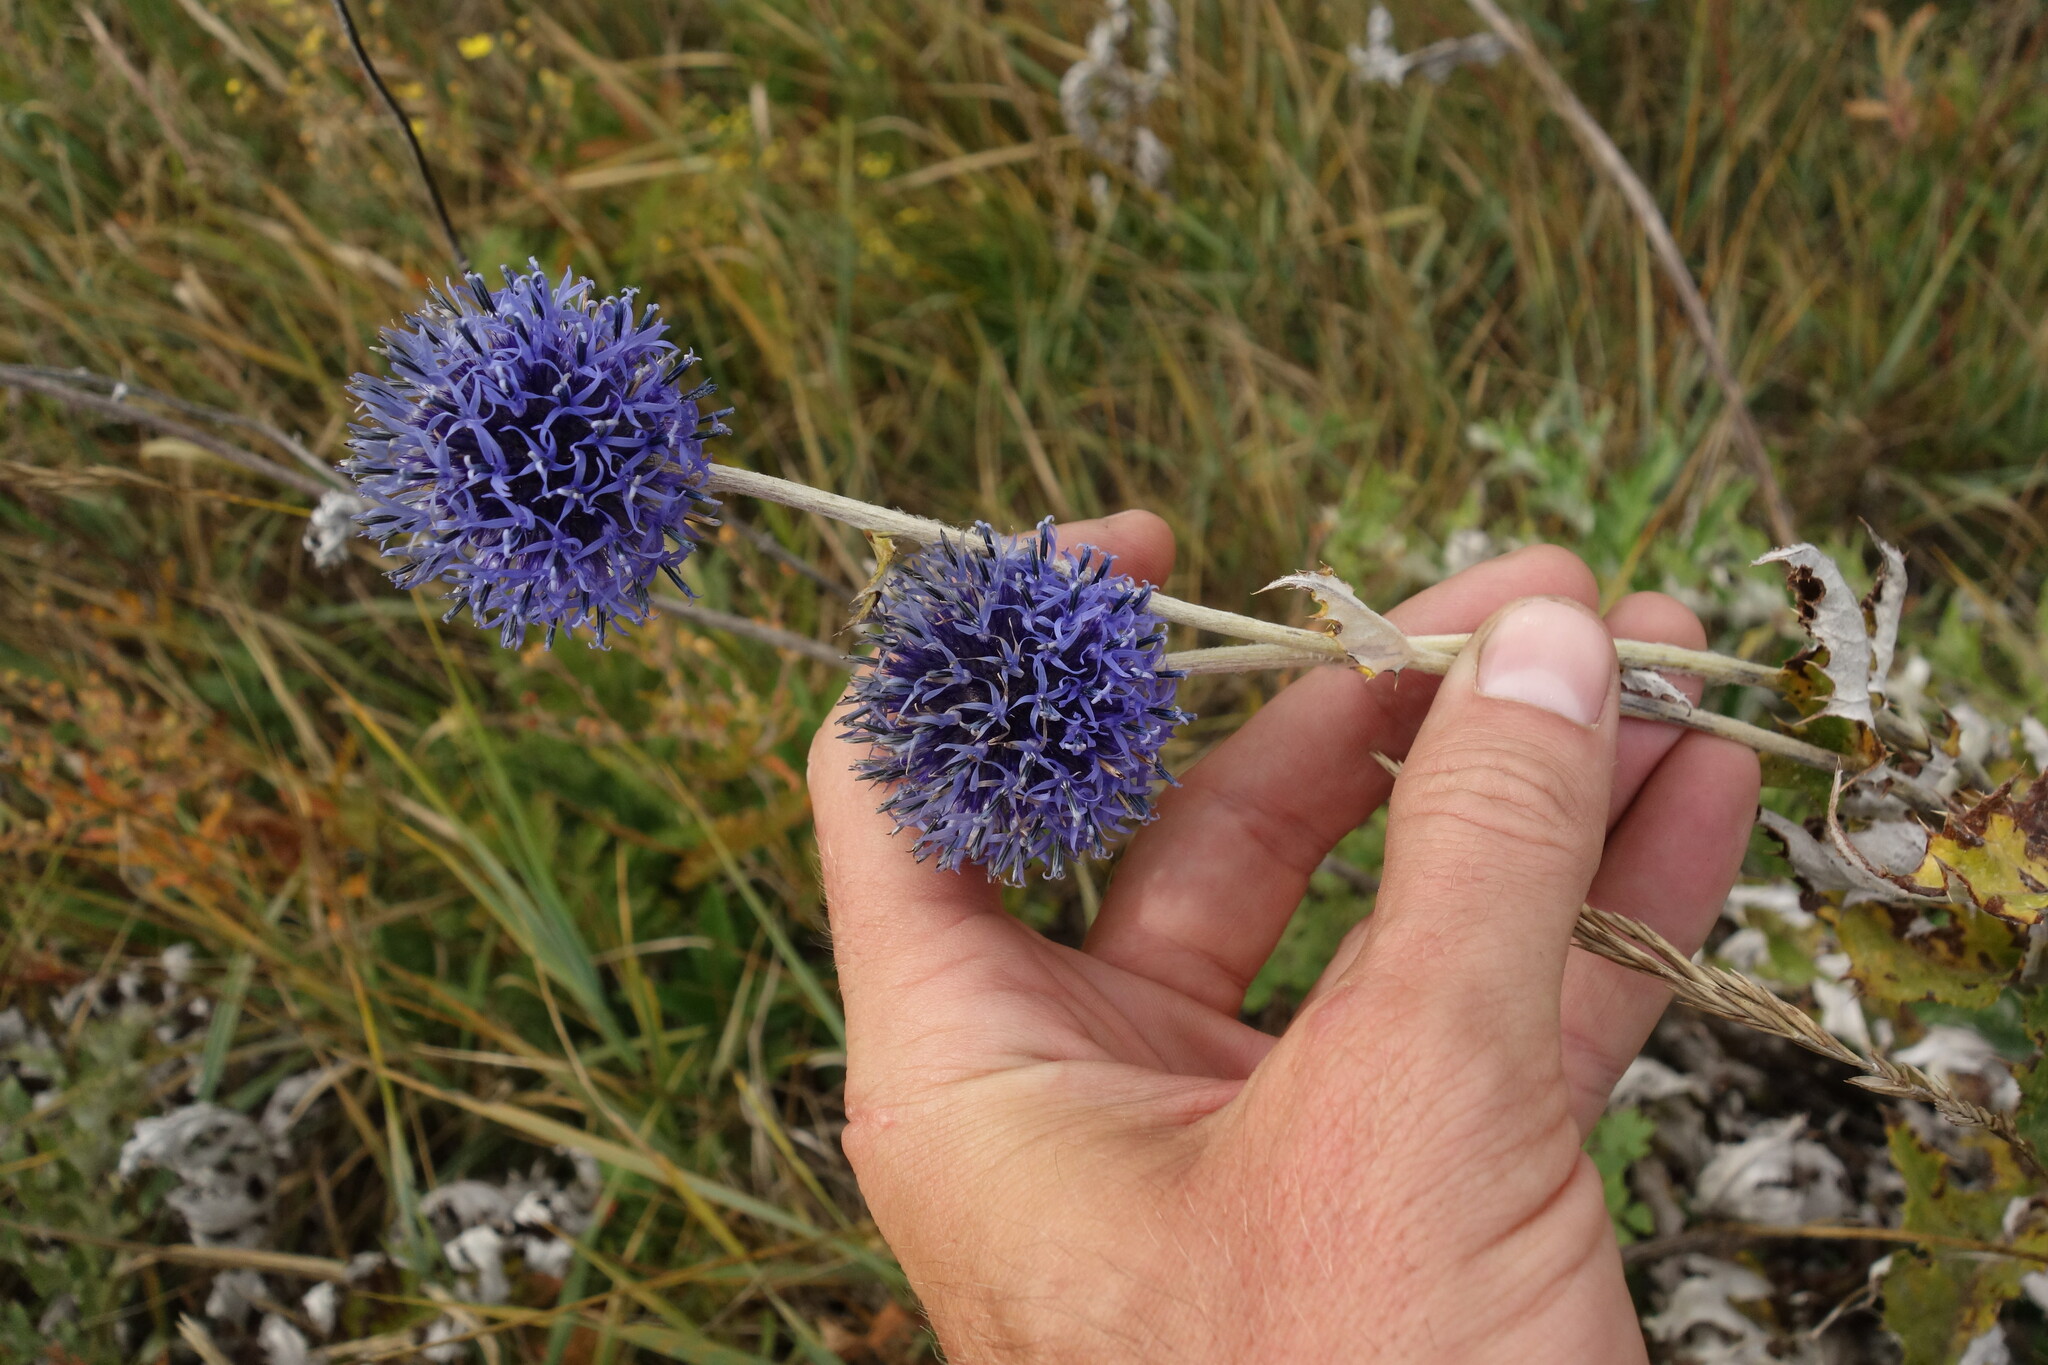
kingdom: Plantae
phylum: Tracheophyta
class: Magnoliopsida
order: Asterales
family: Asteraceae
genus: Echinops
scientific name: Echinops davuricus
